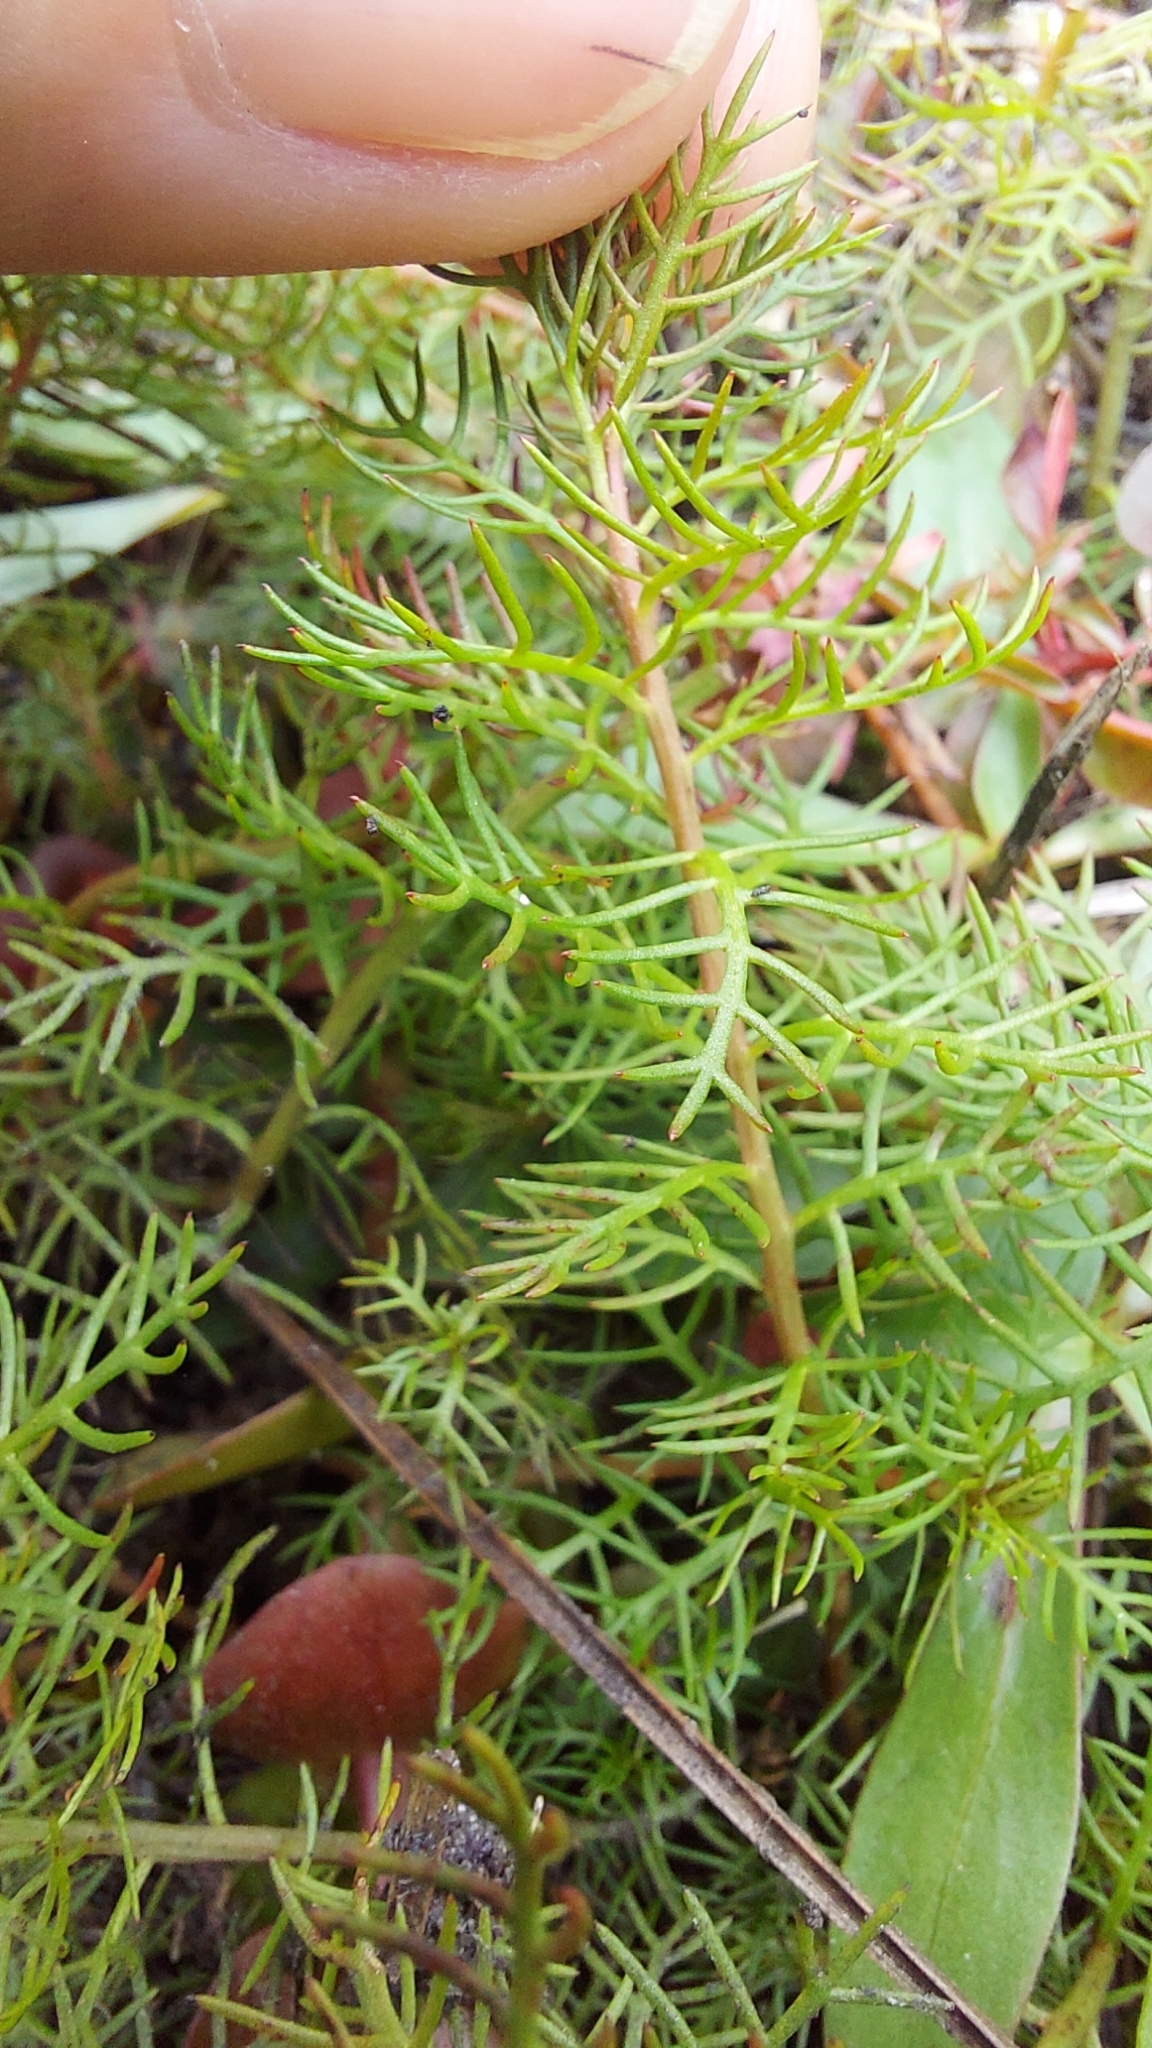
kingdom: Plantae
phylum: Tracheophyta
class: Magnoliopsida
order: Saxifragales
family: Haloragaceae
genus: Proserpinaca
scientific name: Proserpinaca pectinata
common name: Comb-leaved mermaidweed
